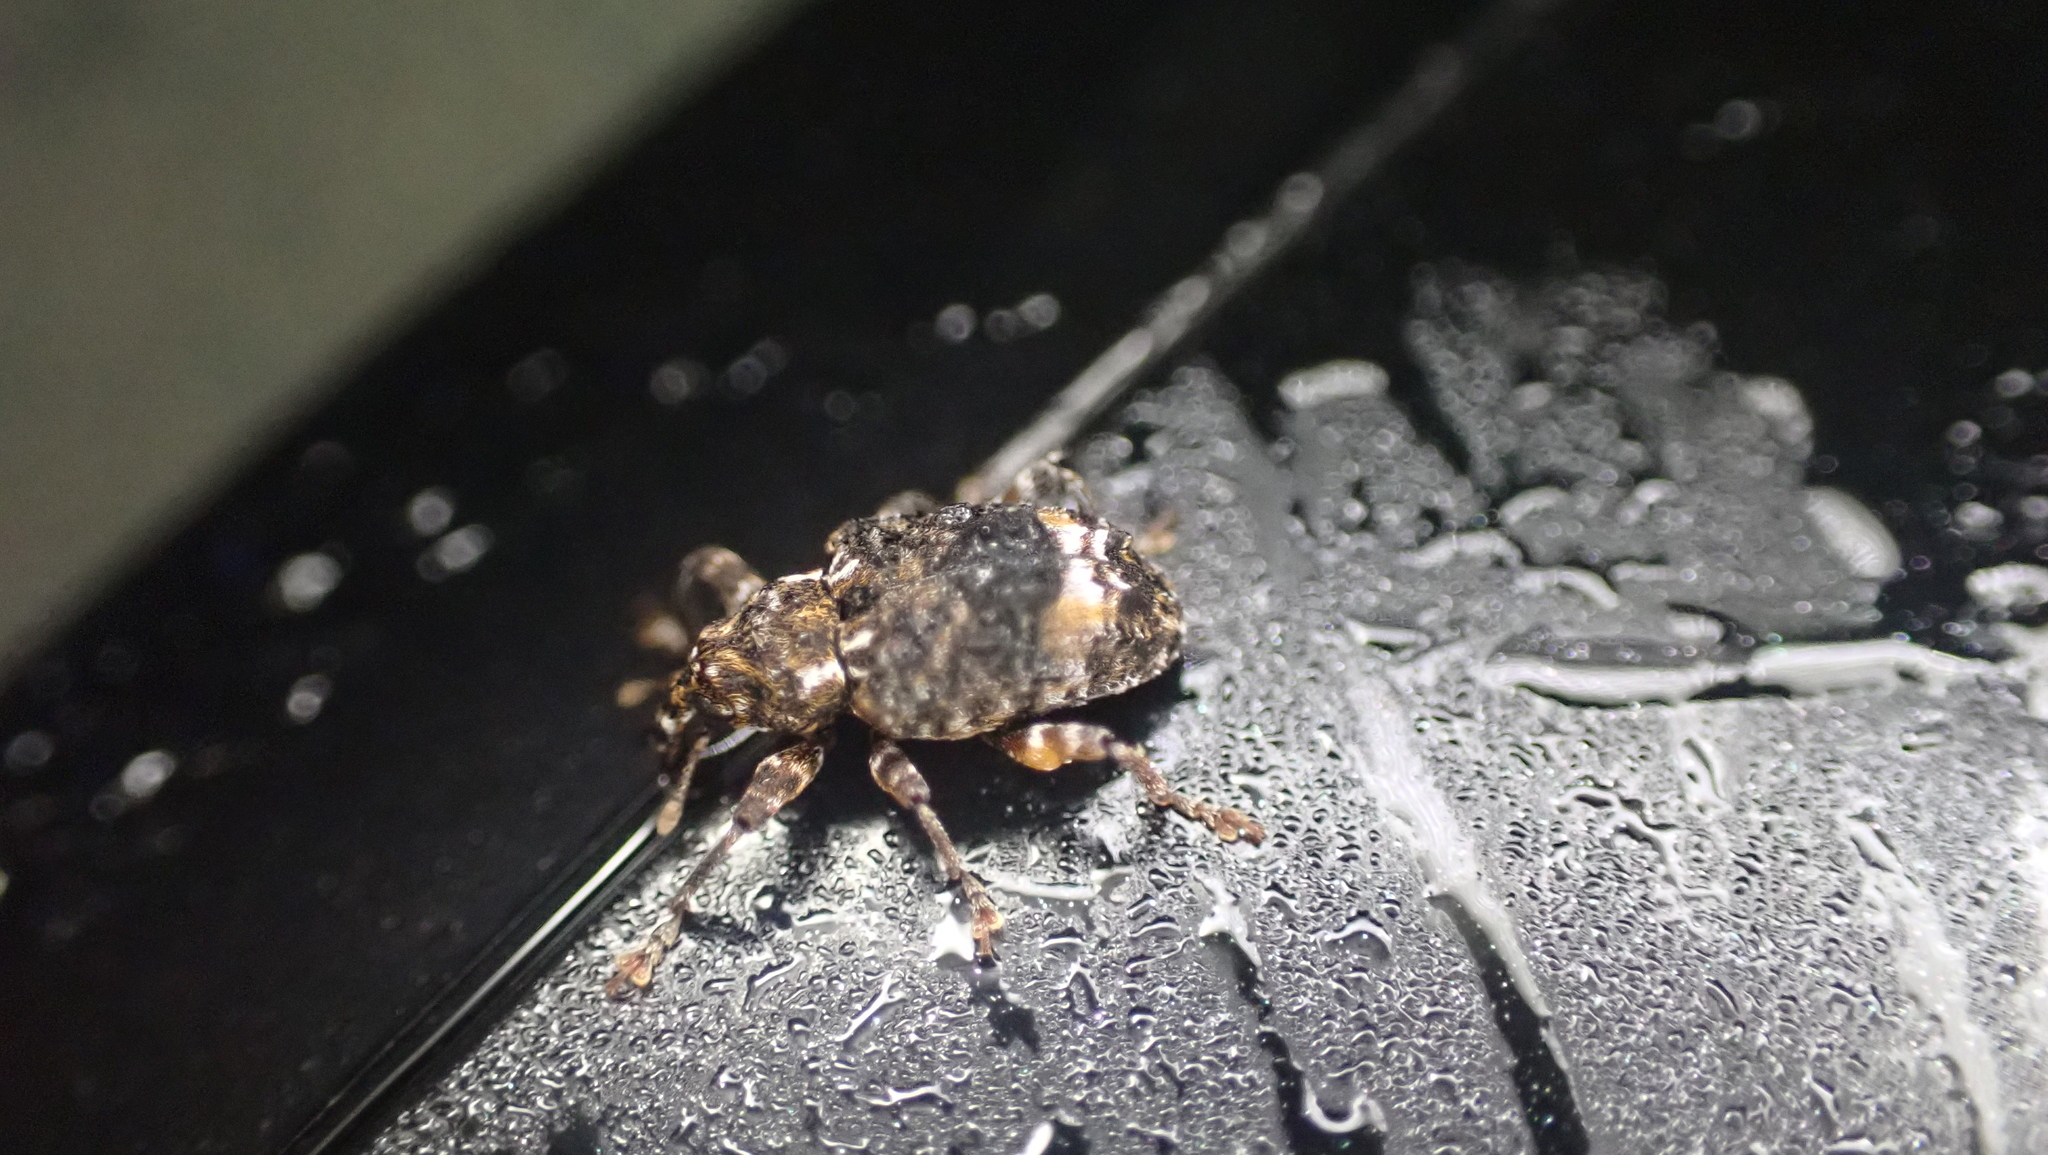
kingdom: Animalia
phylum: Arthropoda
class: Insecta
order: Coleoptera
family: Curculionidae
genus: Conotrachelus
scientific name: Conotrachelus nenuphar
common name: Plum curculio
